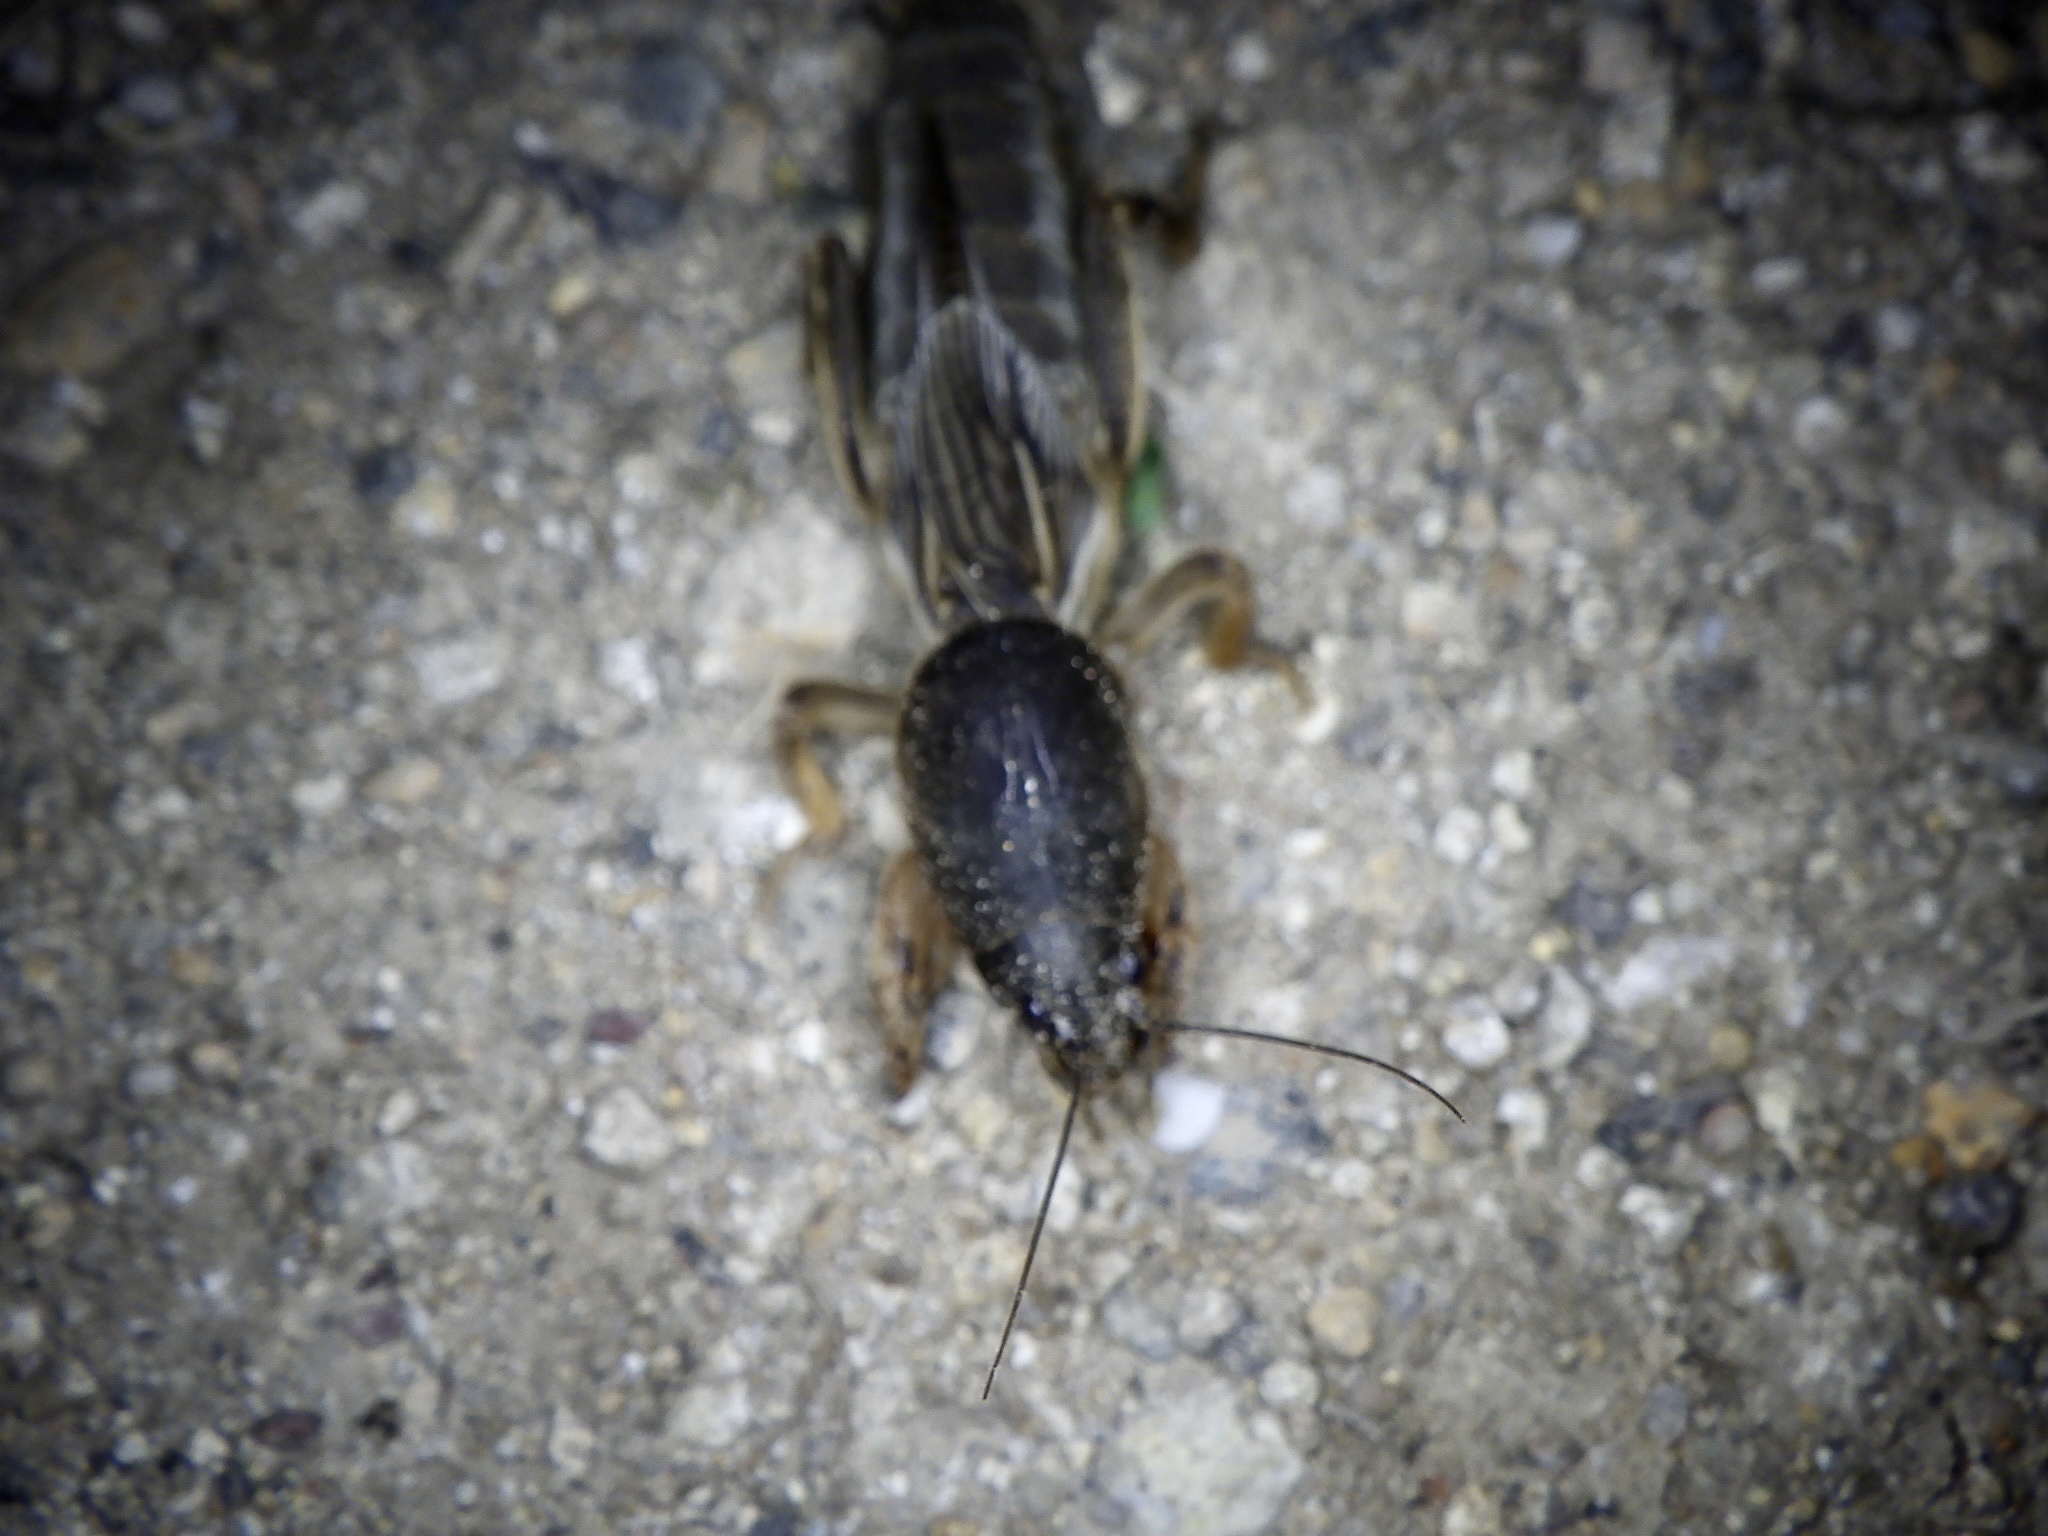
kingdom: Animalia
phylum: Arthropoda
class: Insecta
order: Orthoptera
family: Gryllotalpidae
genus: Gryllotalpa
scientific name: Gryllotalpa orientalis
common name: Grasshopper
